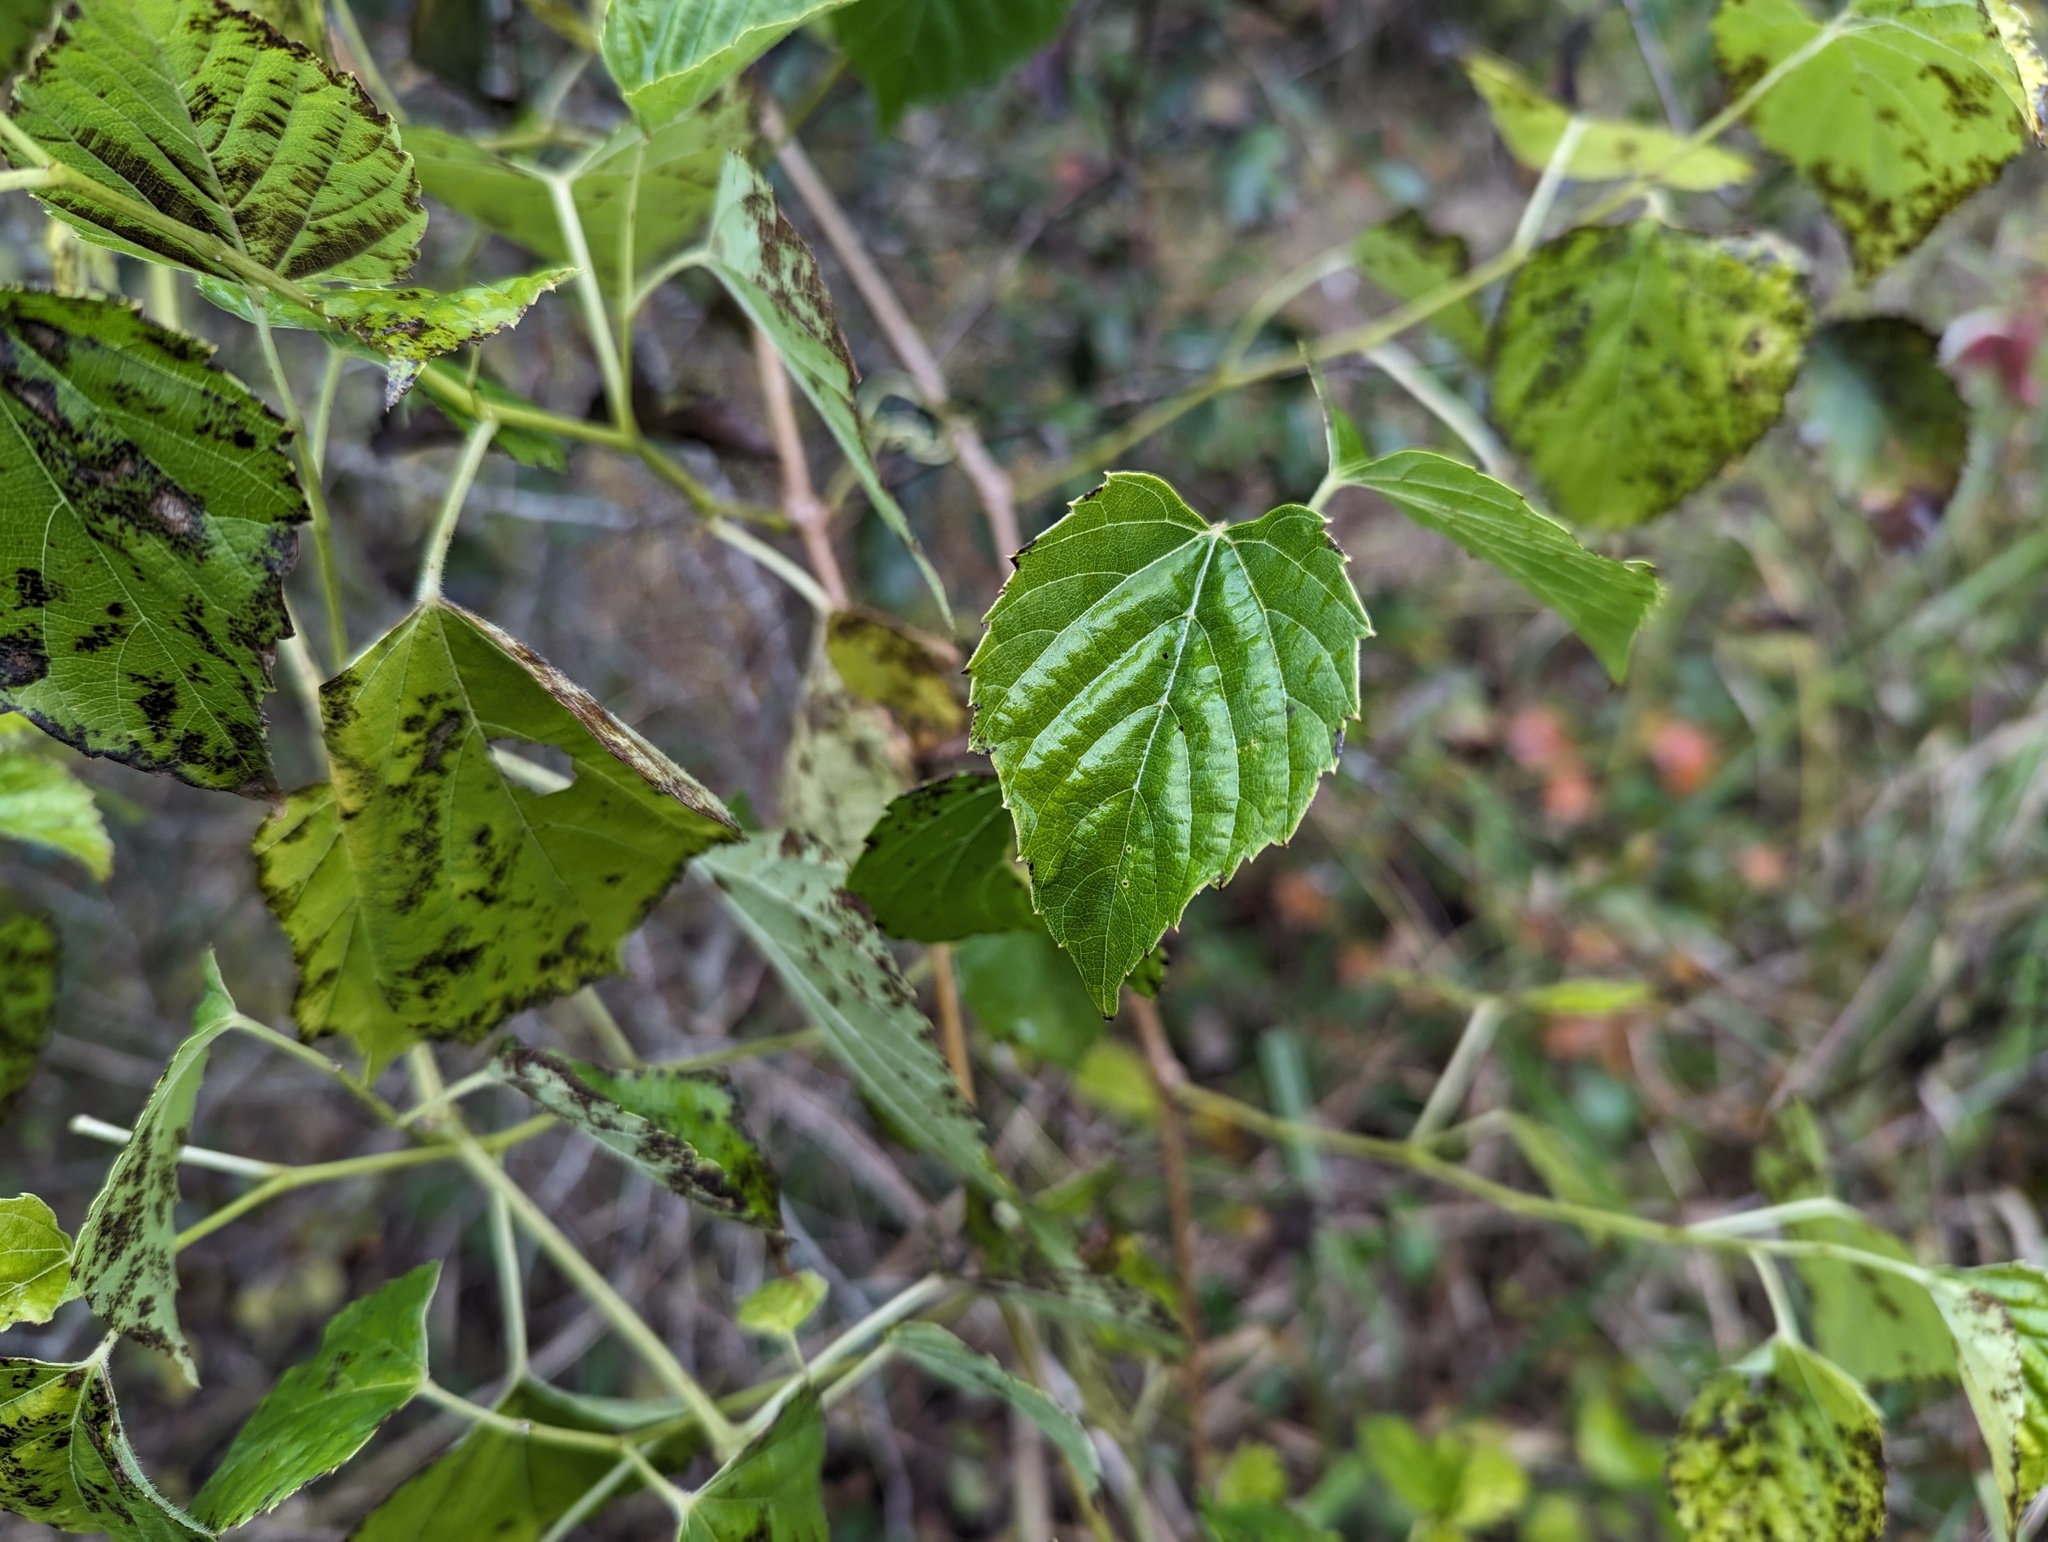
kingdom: Plantae
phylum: Tracheophyta
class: Magnoliopsida
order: Vitales
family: Vitaceae
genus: Ampelopsis
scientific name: Ampelopsis cordata
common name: Heart-leaf ampelopsis
